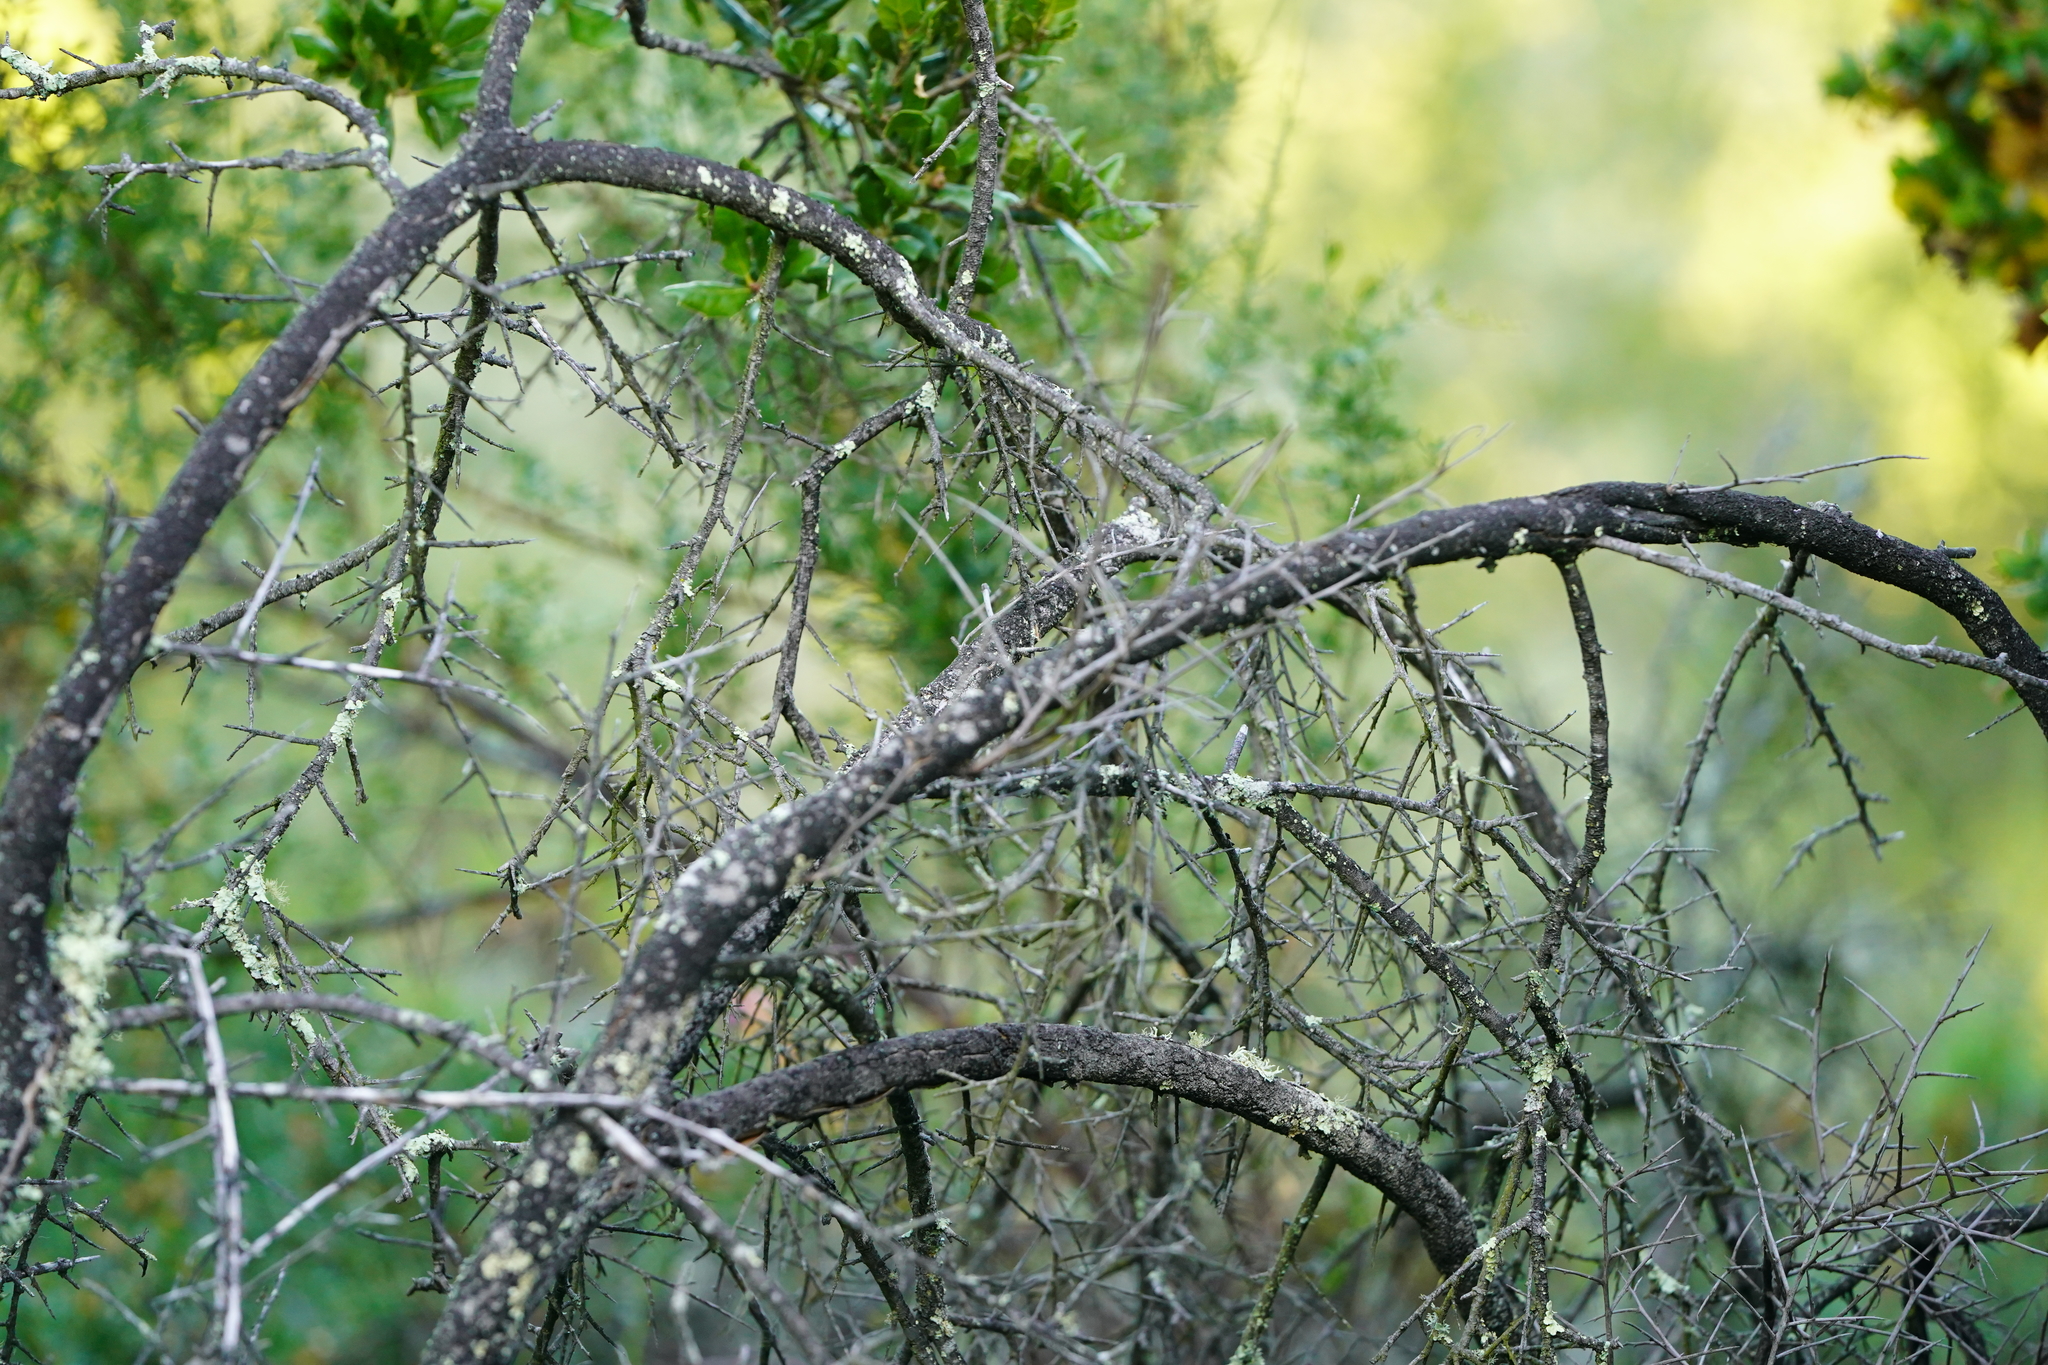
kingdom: Plantae
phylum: Tracheophyta
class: Magnoliopsida
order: Fabales
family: Fabaceae
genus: Pickeringia
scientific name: Pickeringia montana
